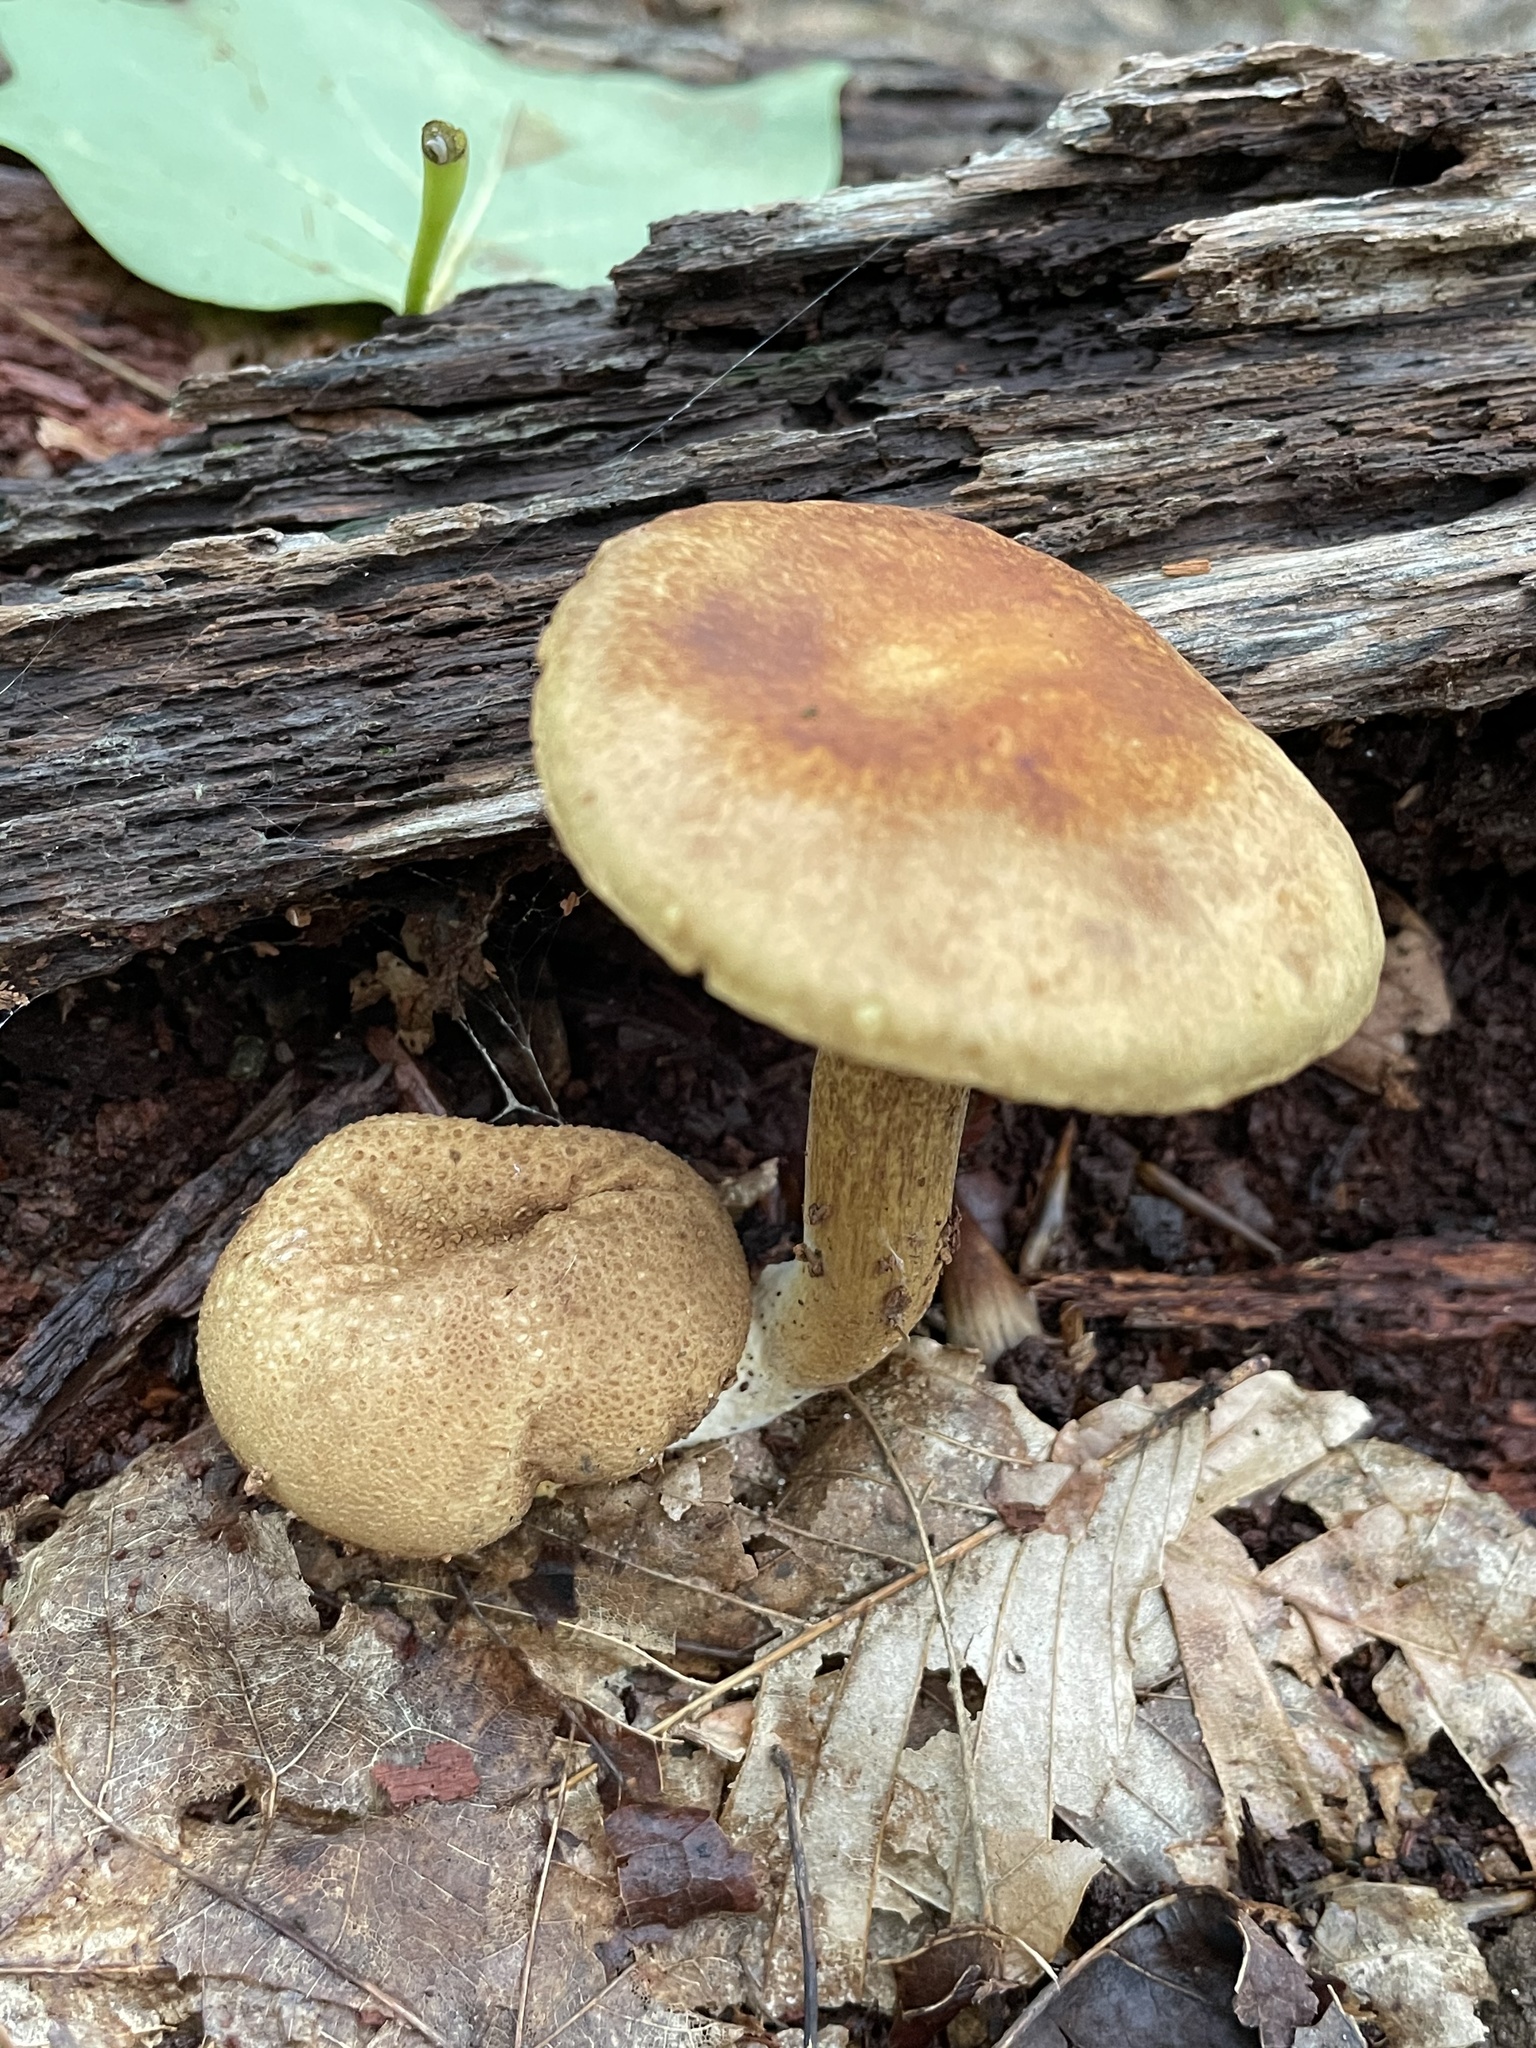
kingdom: Fungi
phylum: Basidiomycota
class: Agaricomycetes
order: Boletales
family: Boletaceae
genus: Pseudoboletus
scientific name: Pseudoboletus parasiticus
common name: Parasitic bolete
